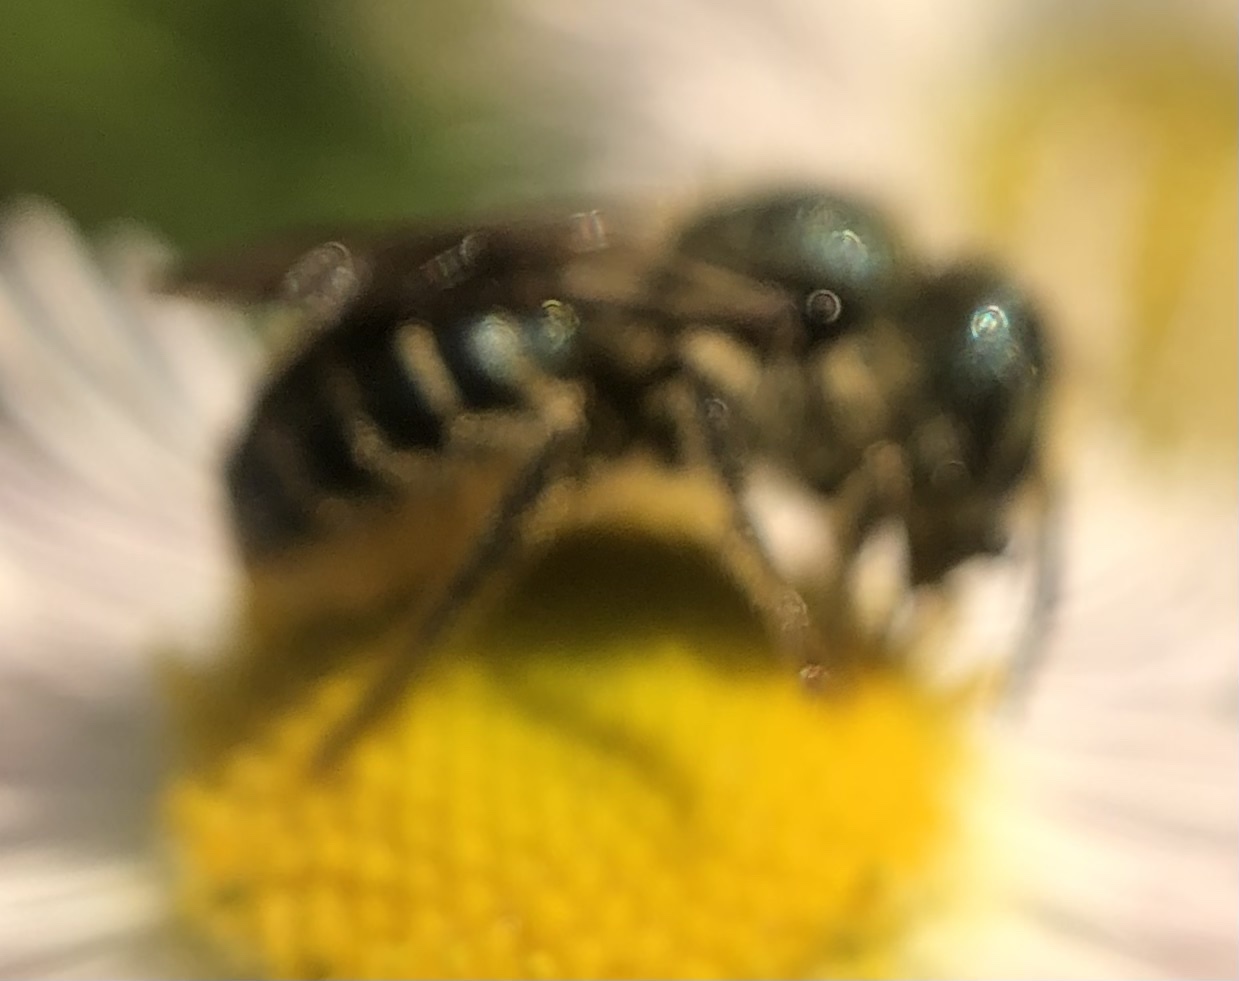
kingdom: Animalia
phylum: Arthropoda
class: Insecta
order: Hymenoptera
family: Megachilidae
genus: Osmia
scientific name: Osmia georgica
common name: Georgia mason
